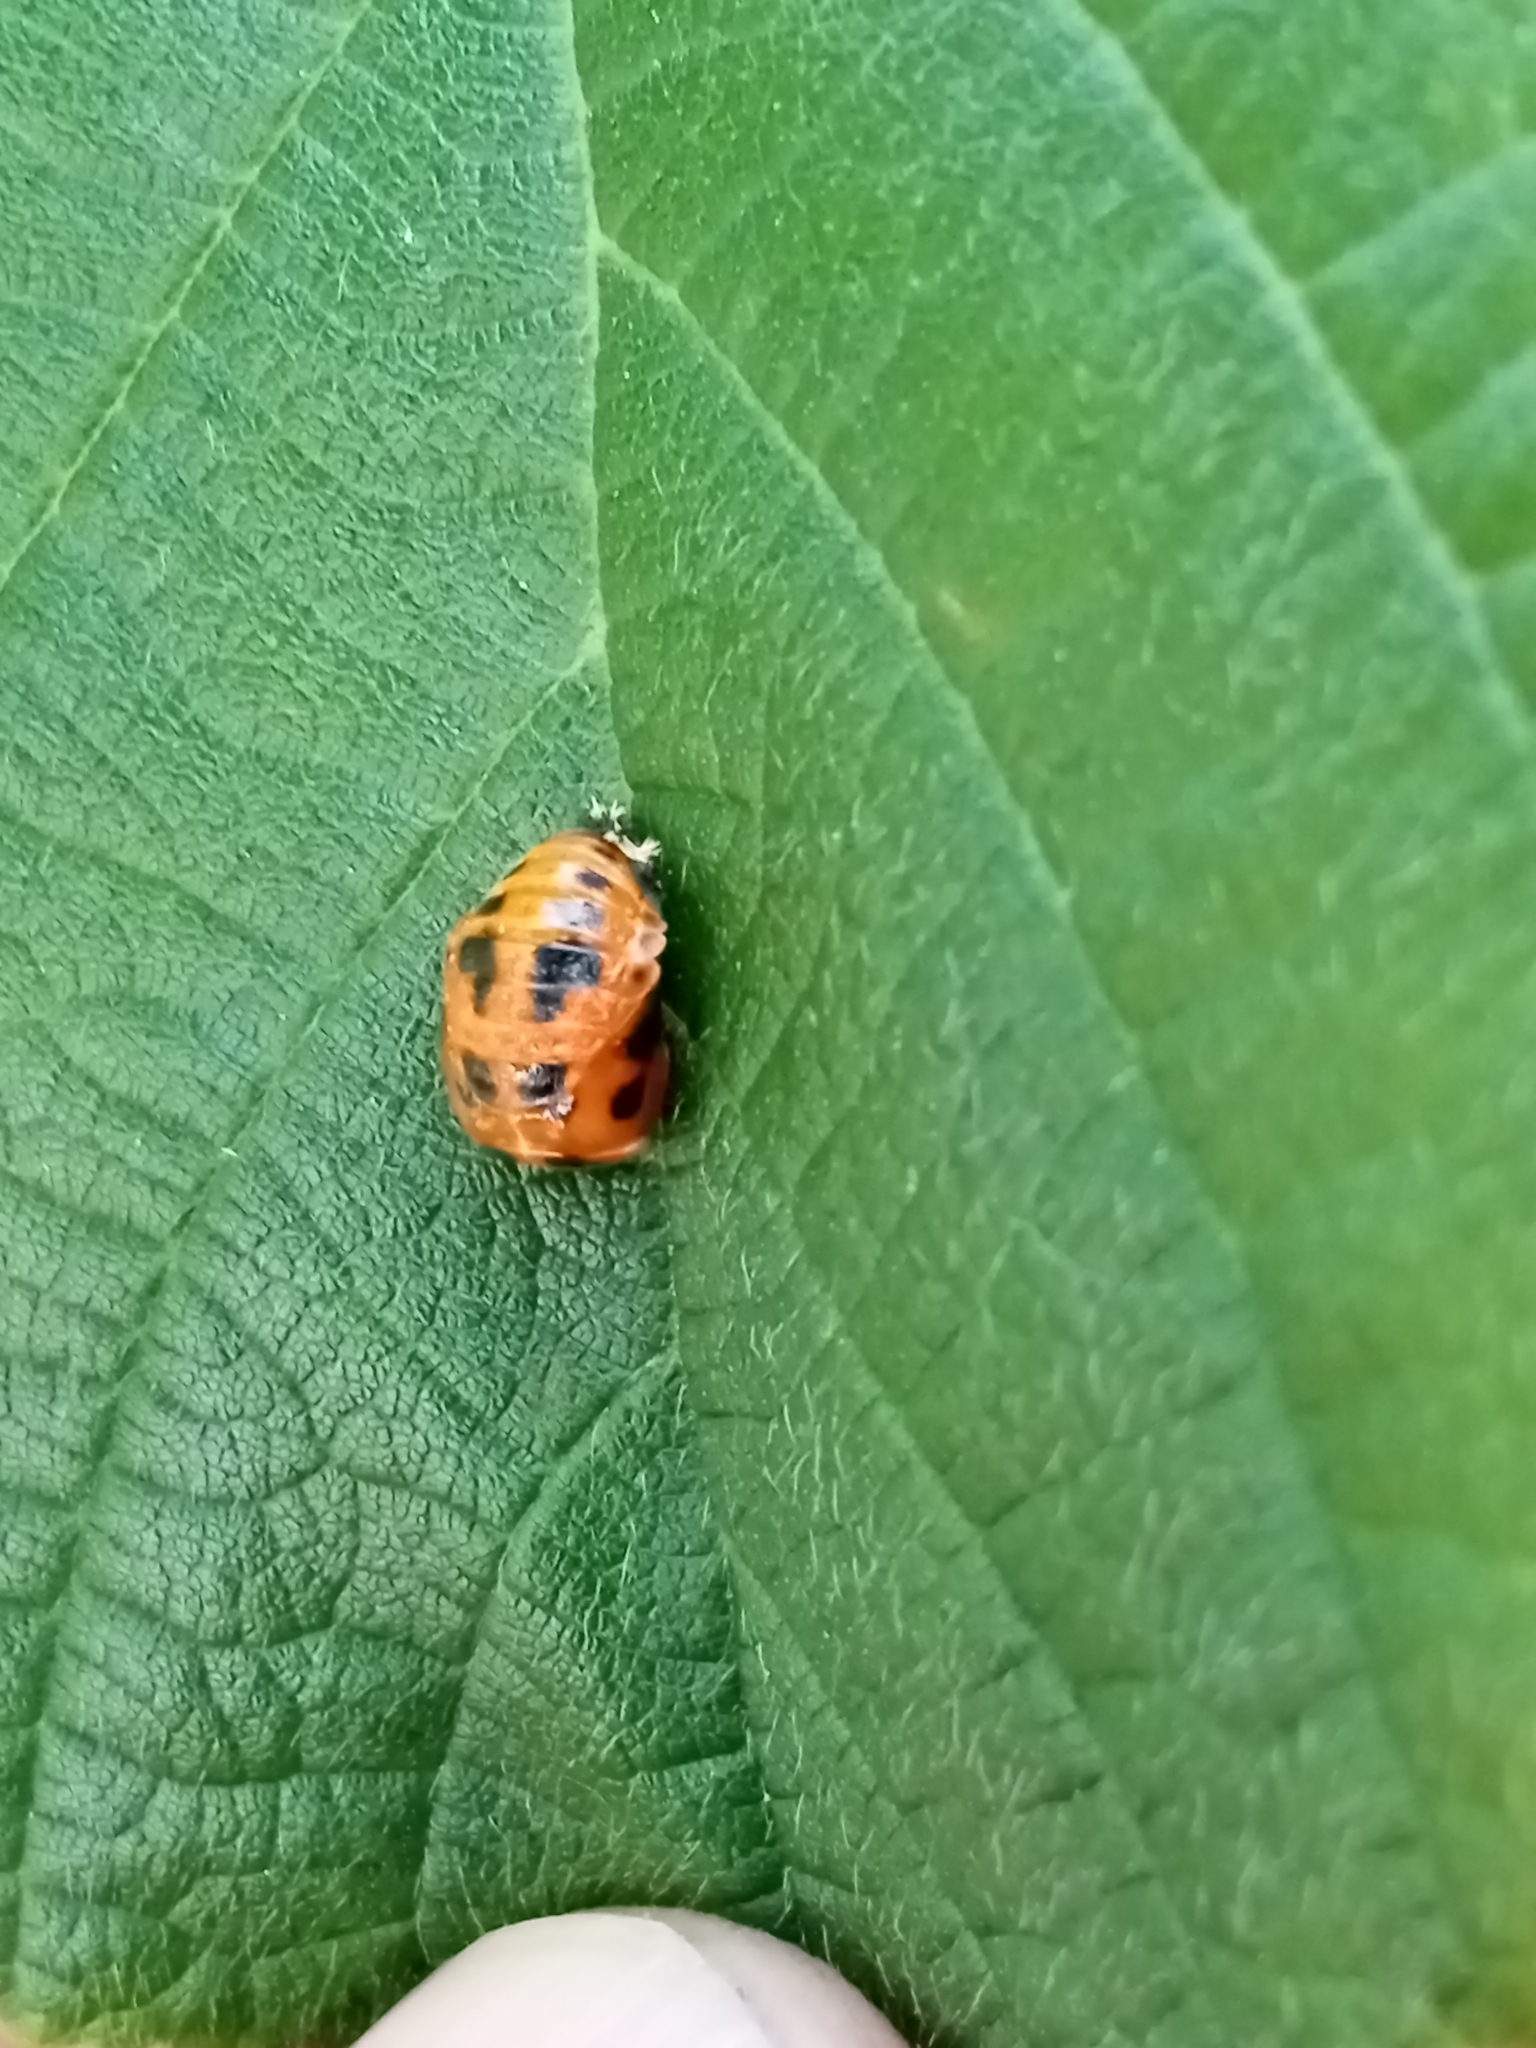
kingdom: Animalia
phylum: Arthropoda
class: Insecta
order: Coleoptera
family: Coccinellidae
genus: Harmonia
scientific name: Harmonia axyridis
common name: Harlequin ladybird
